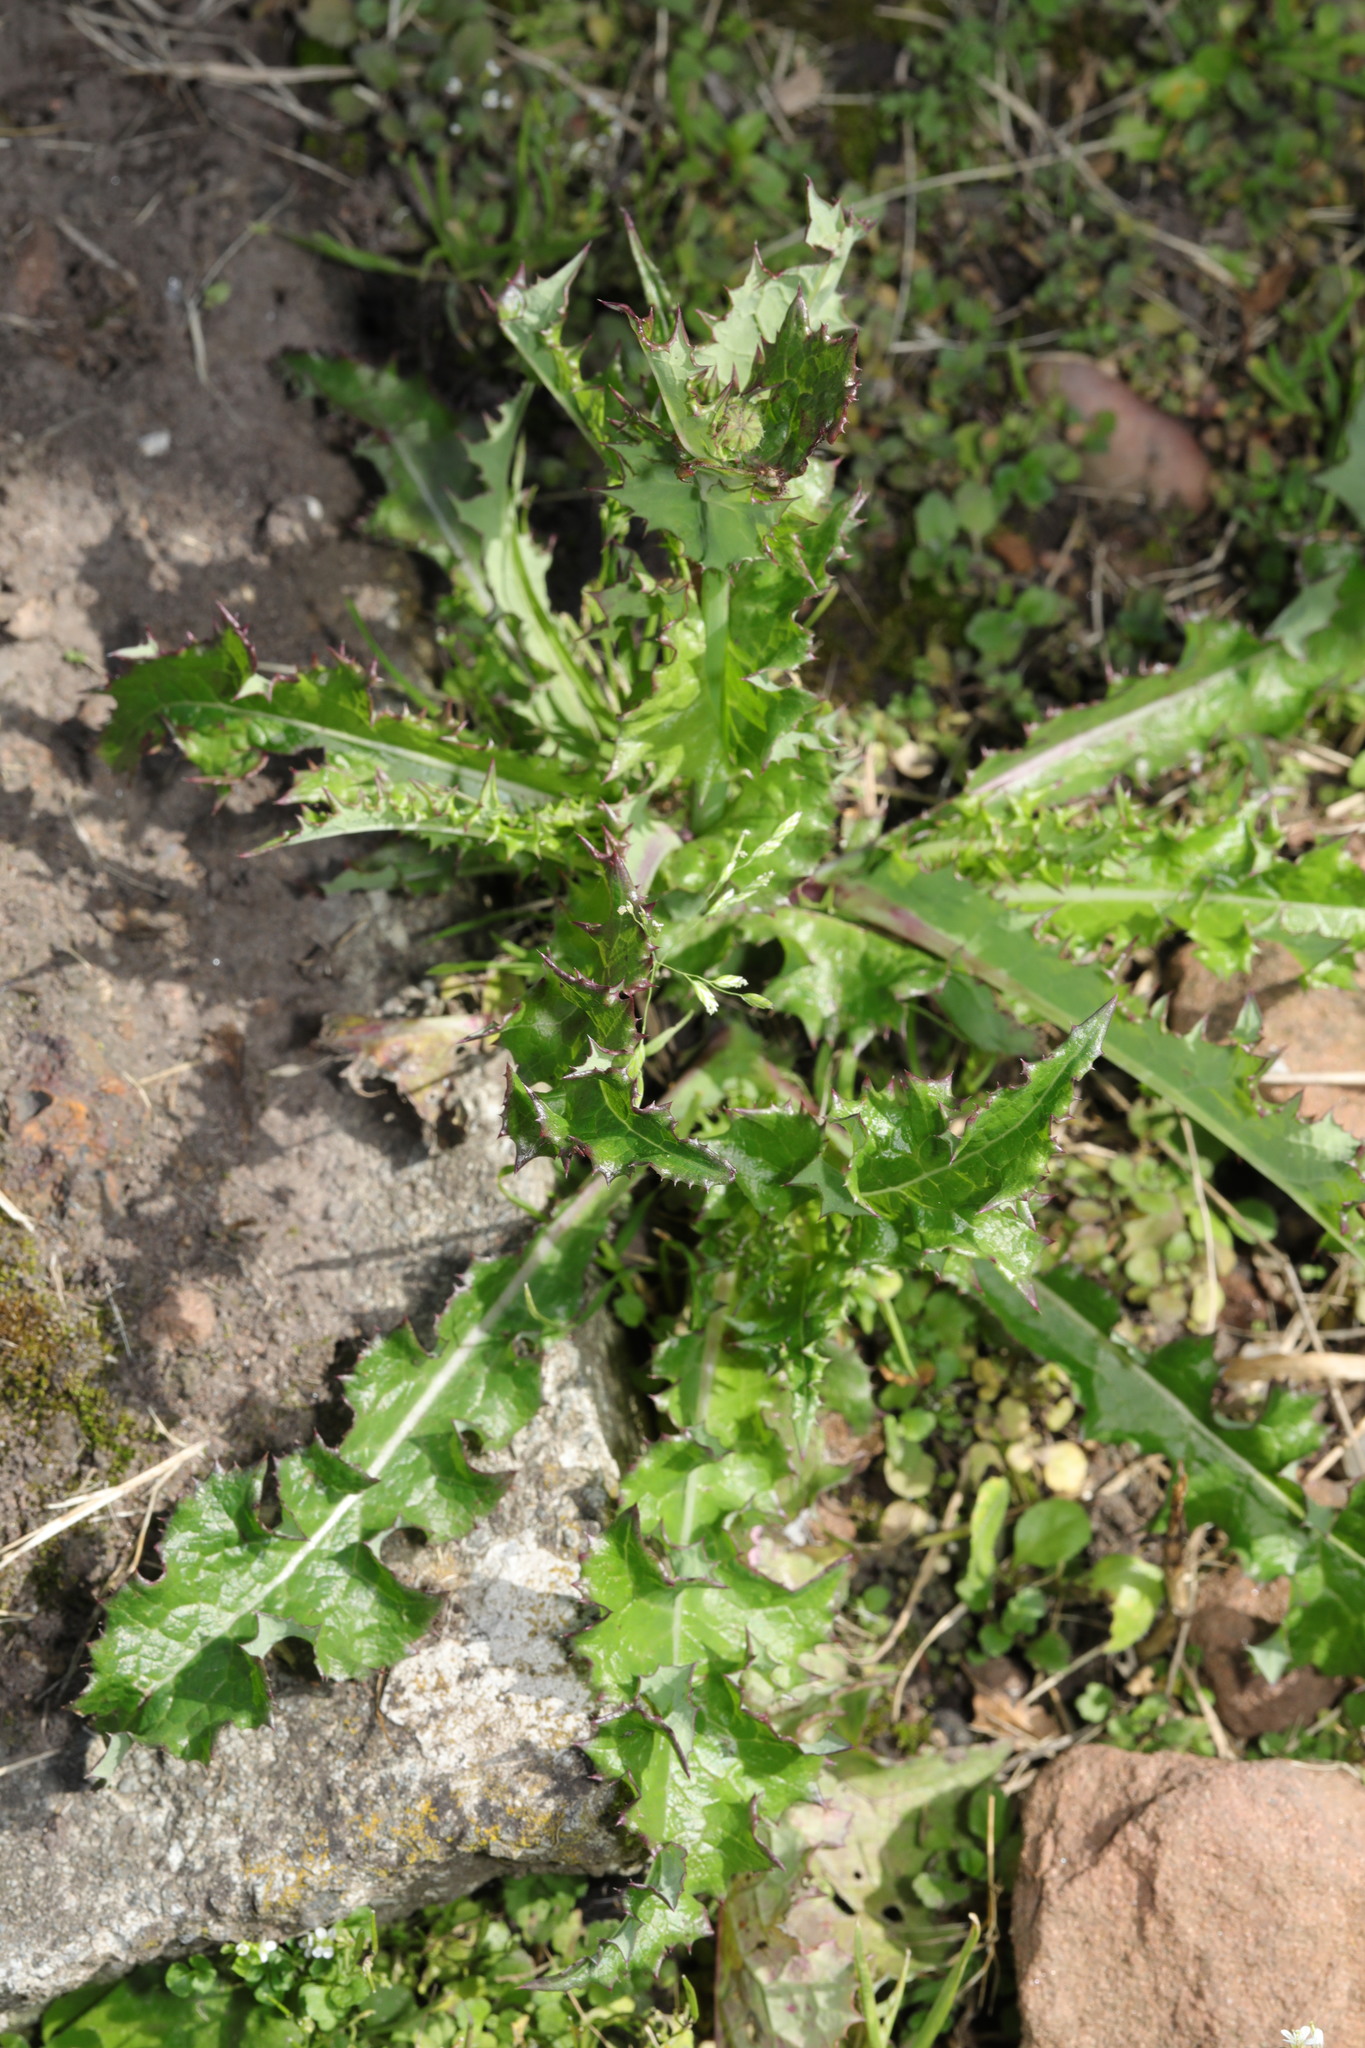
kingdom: Plantae
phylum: Tracheophyta
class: Magnoliopsida
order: Asterales
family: Asteraceae
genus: Sonchus
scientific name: Sonchus asper
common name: Prickly sow-thistle
